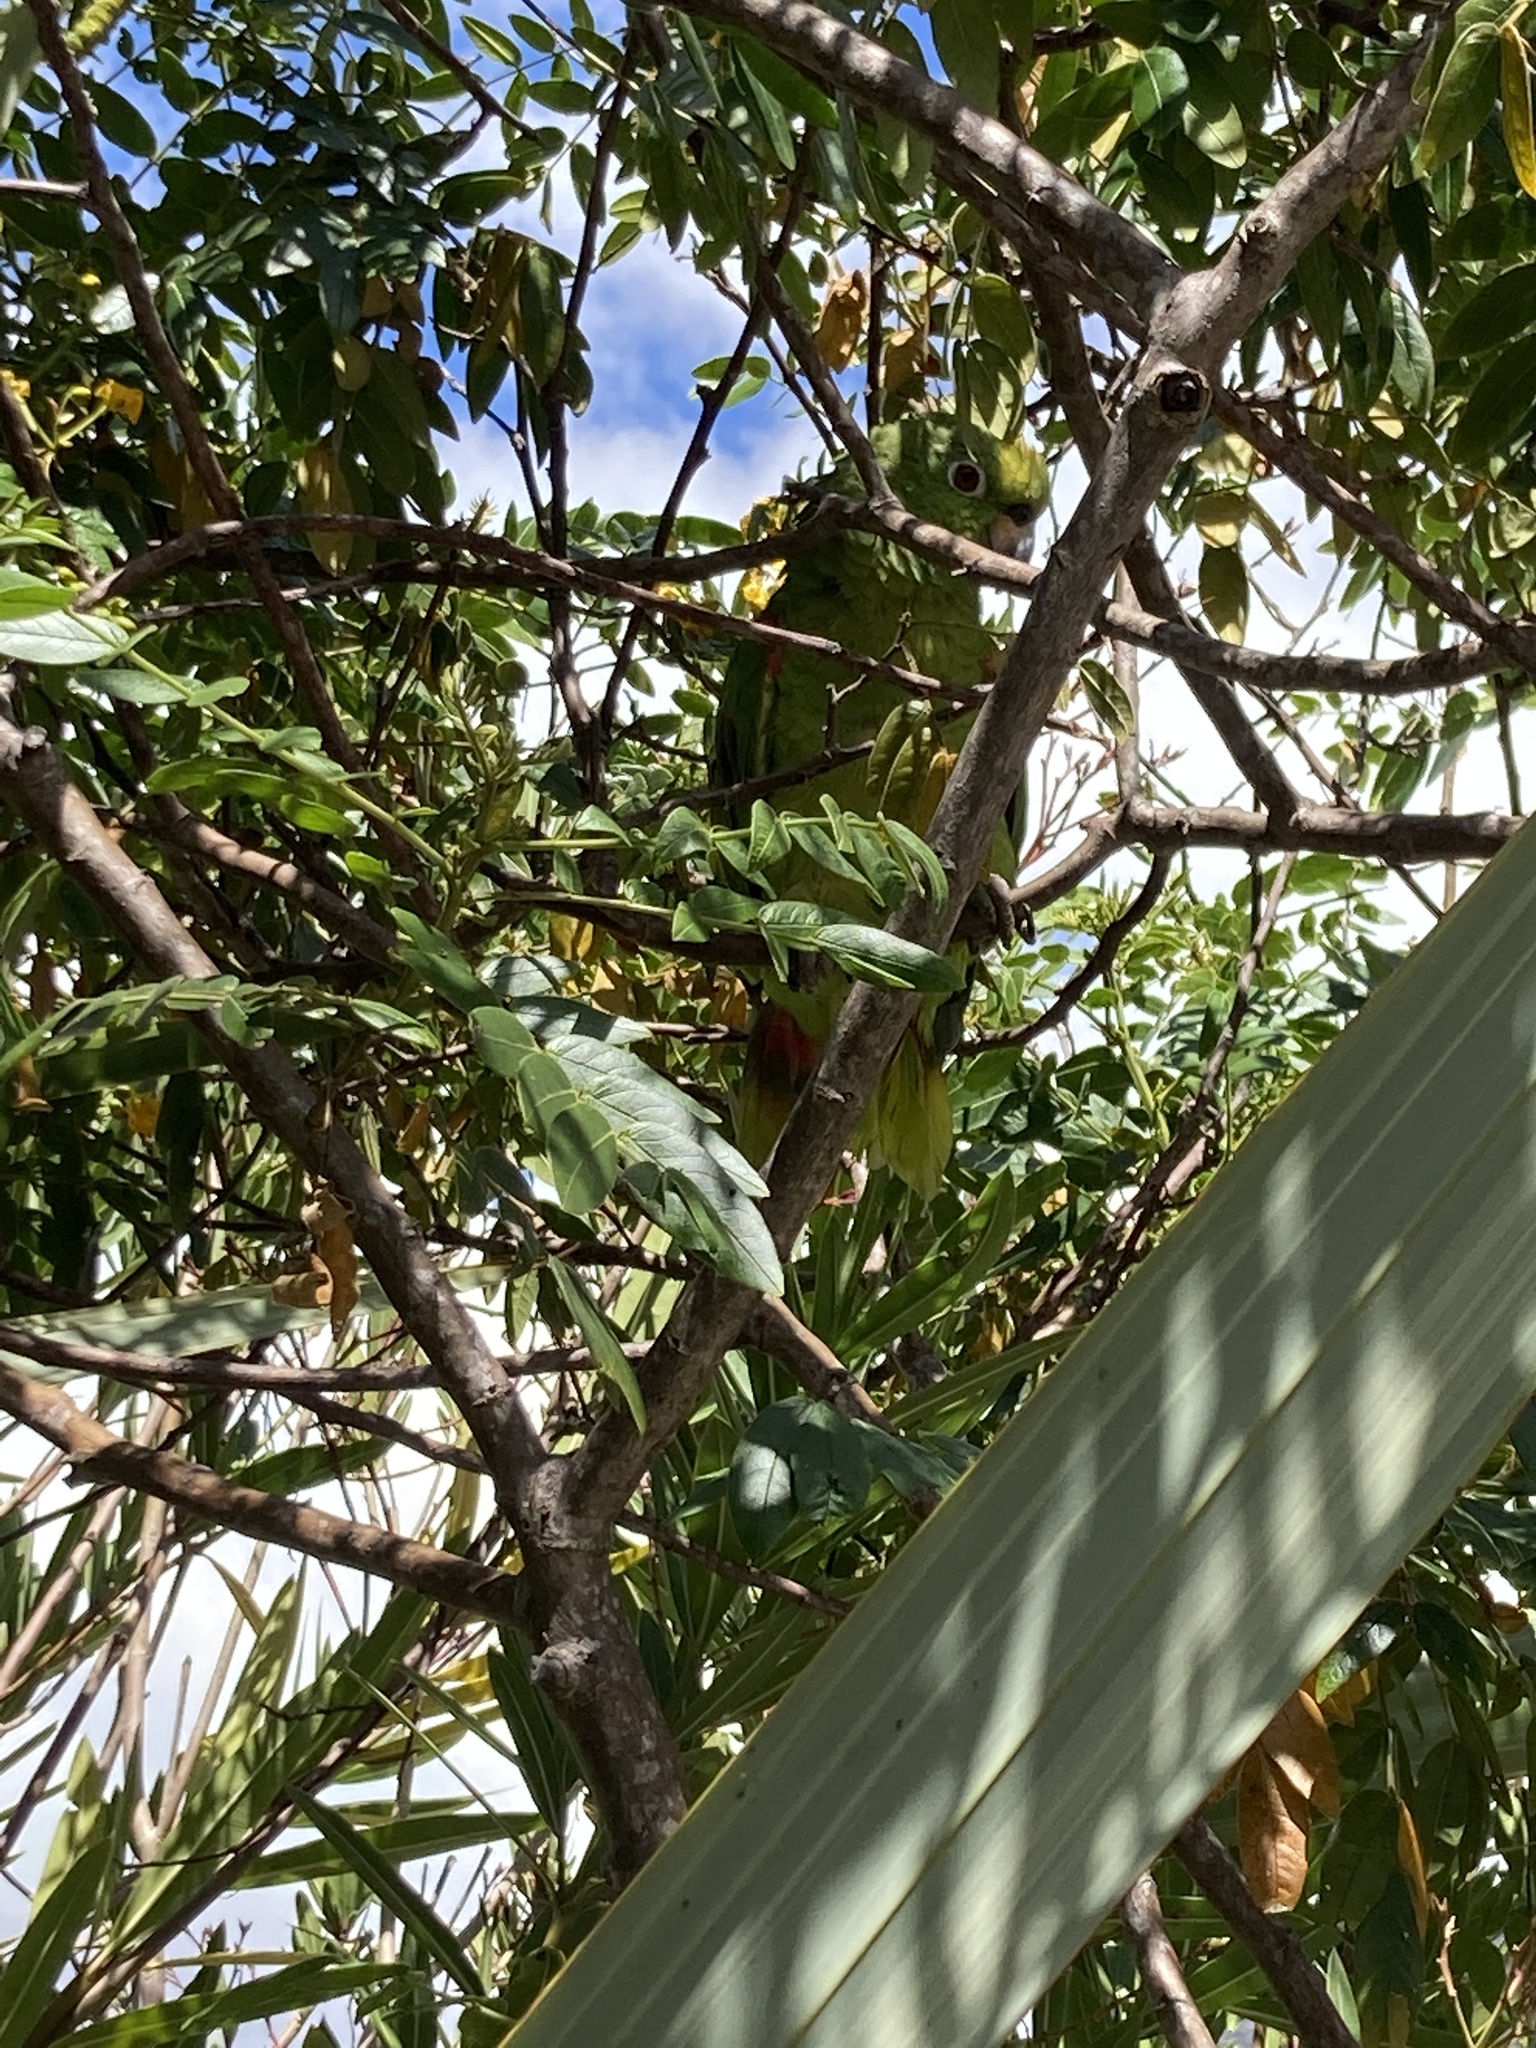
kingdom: Animalia
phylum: Chordata
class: Aves
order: Psittaciformes
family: Psittacidae
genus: Amazona
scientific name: Amazona ochrocephala
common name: Yellow-crowned amazon
